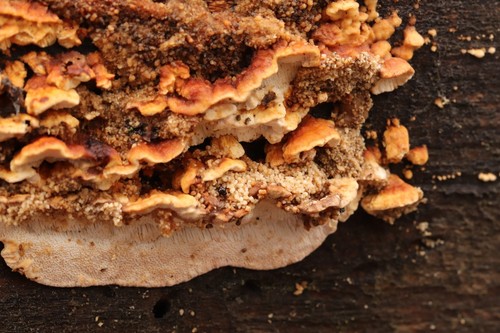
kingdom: Fungi
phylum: Basidiomycota
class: Agaricomycetes
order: Polyporales
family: Fomitopsidaceae
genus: Neoantrodia
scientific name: Neoantrodia serialis
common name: Serried porecrust
